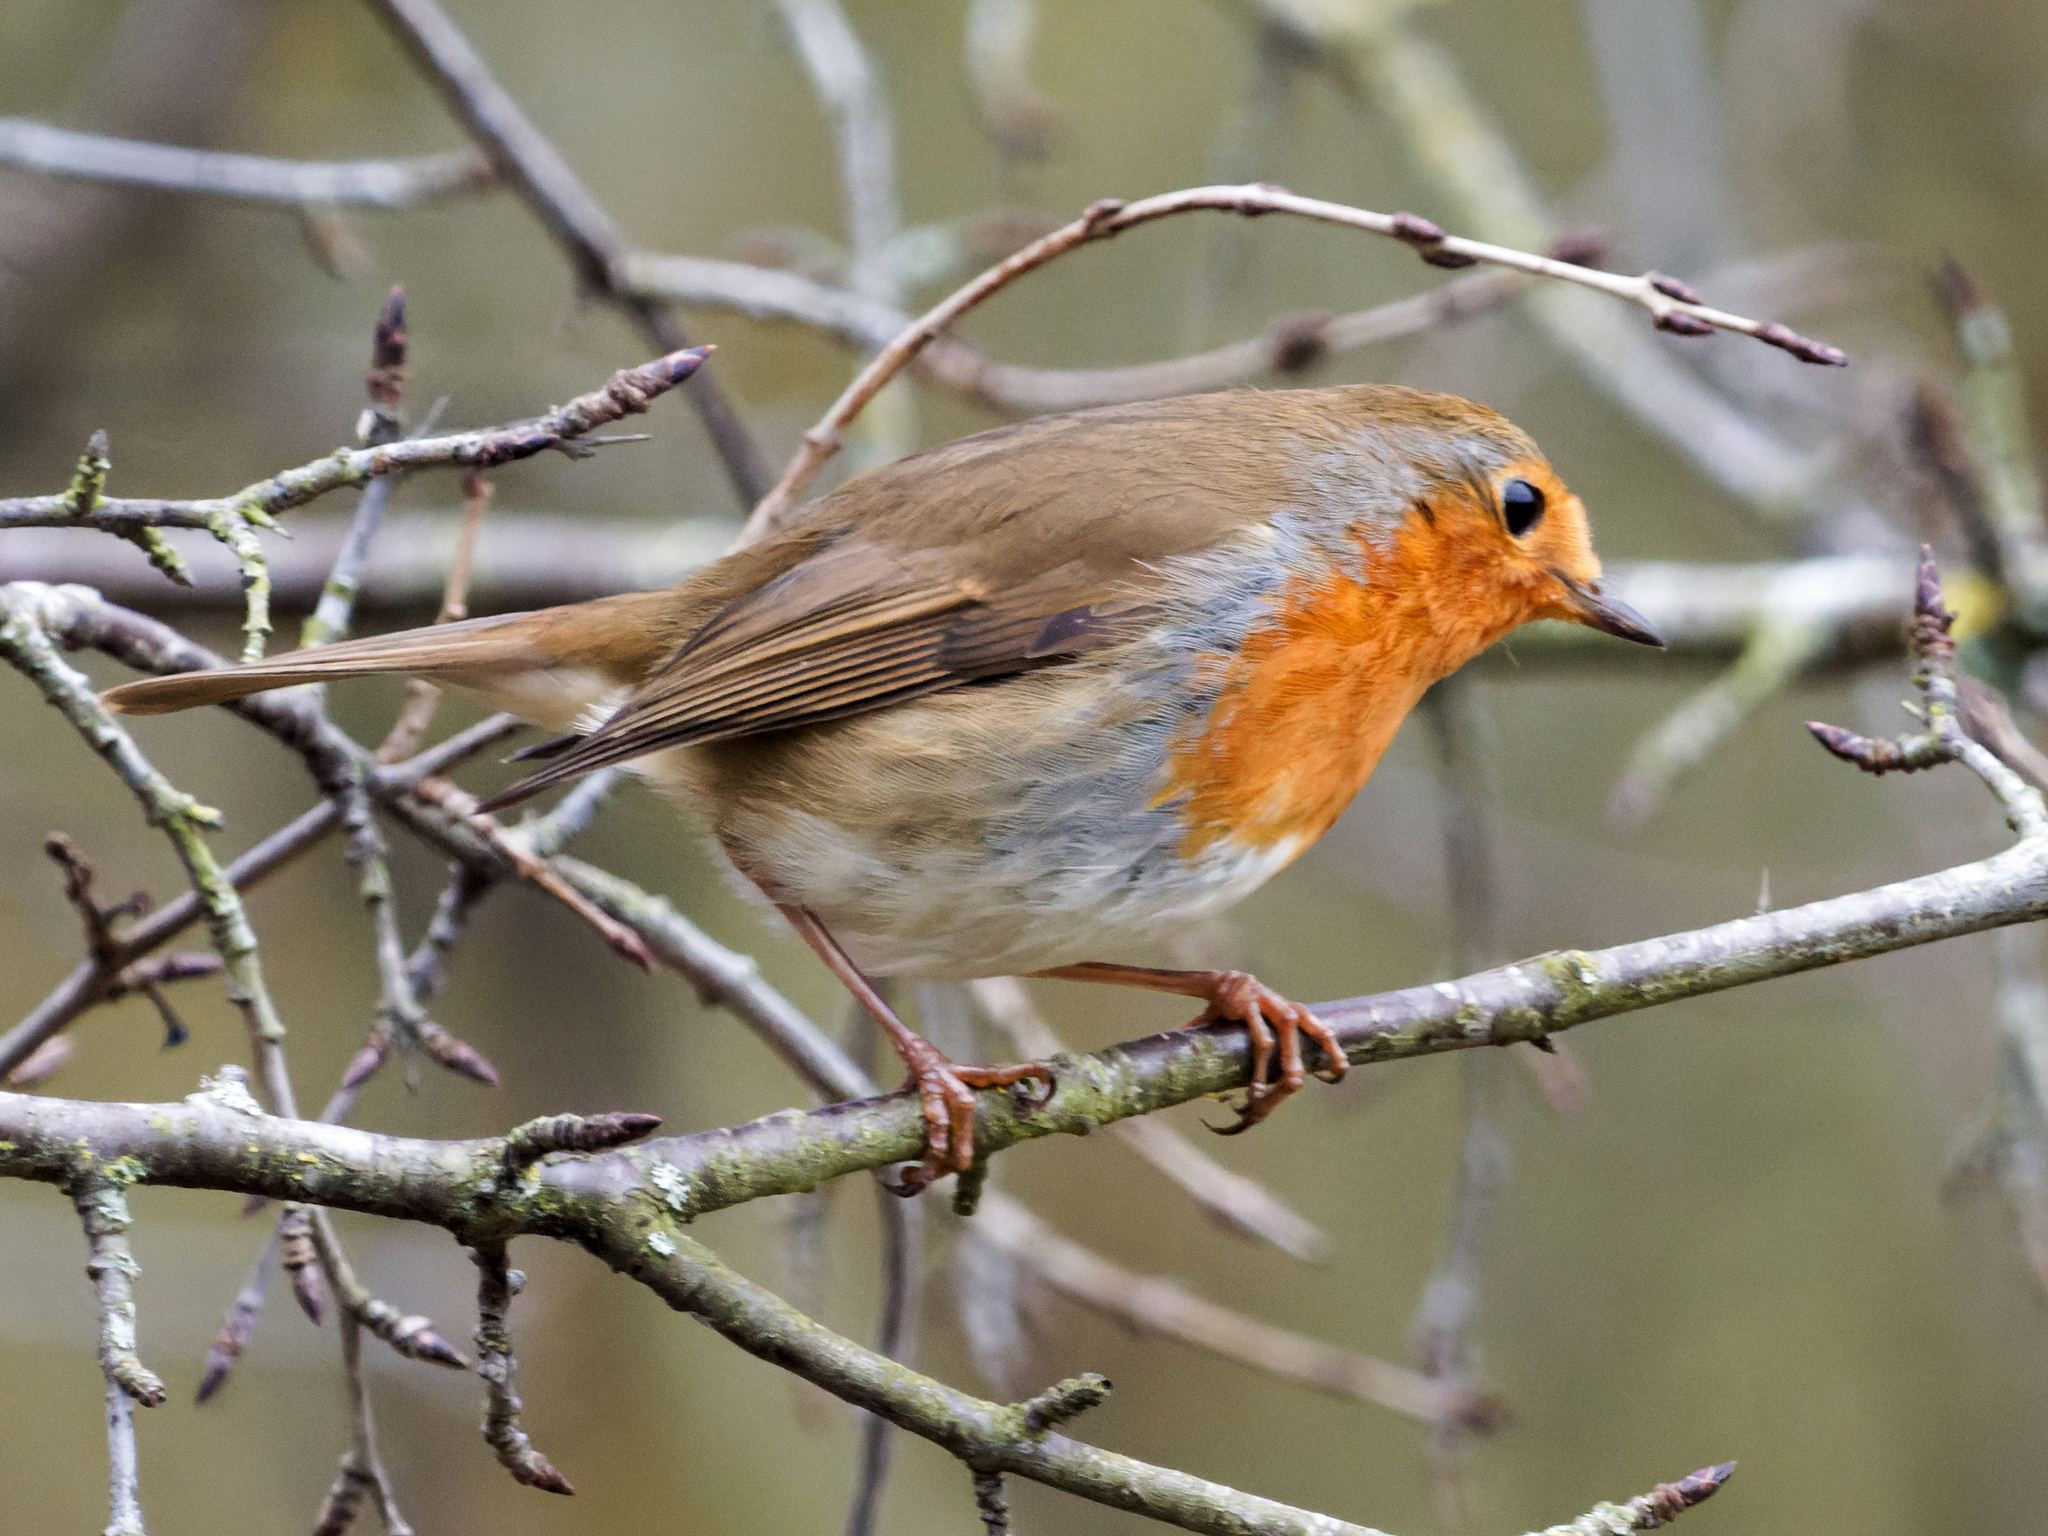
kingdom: Animalia
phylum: Chordata
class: Aves
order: Passeriformes
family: Muscicapidae
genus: Erithacus
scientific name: Erithacus rubecula
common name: European robin
